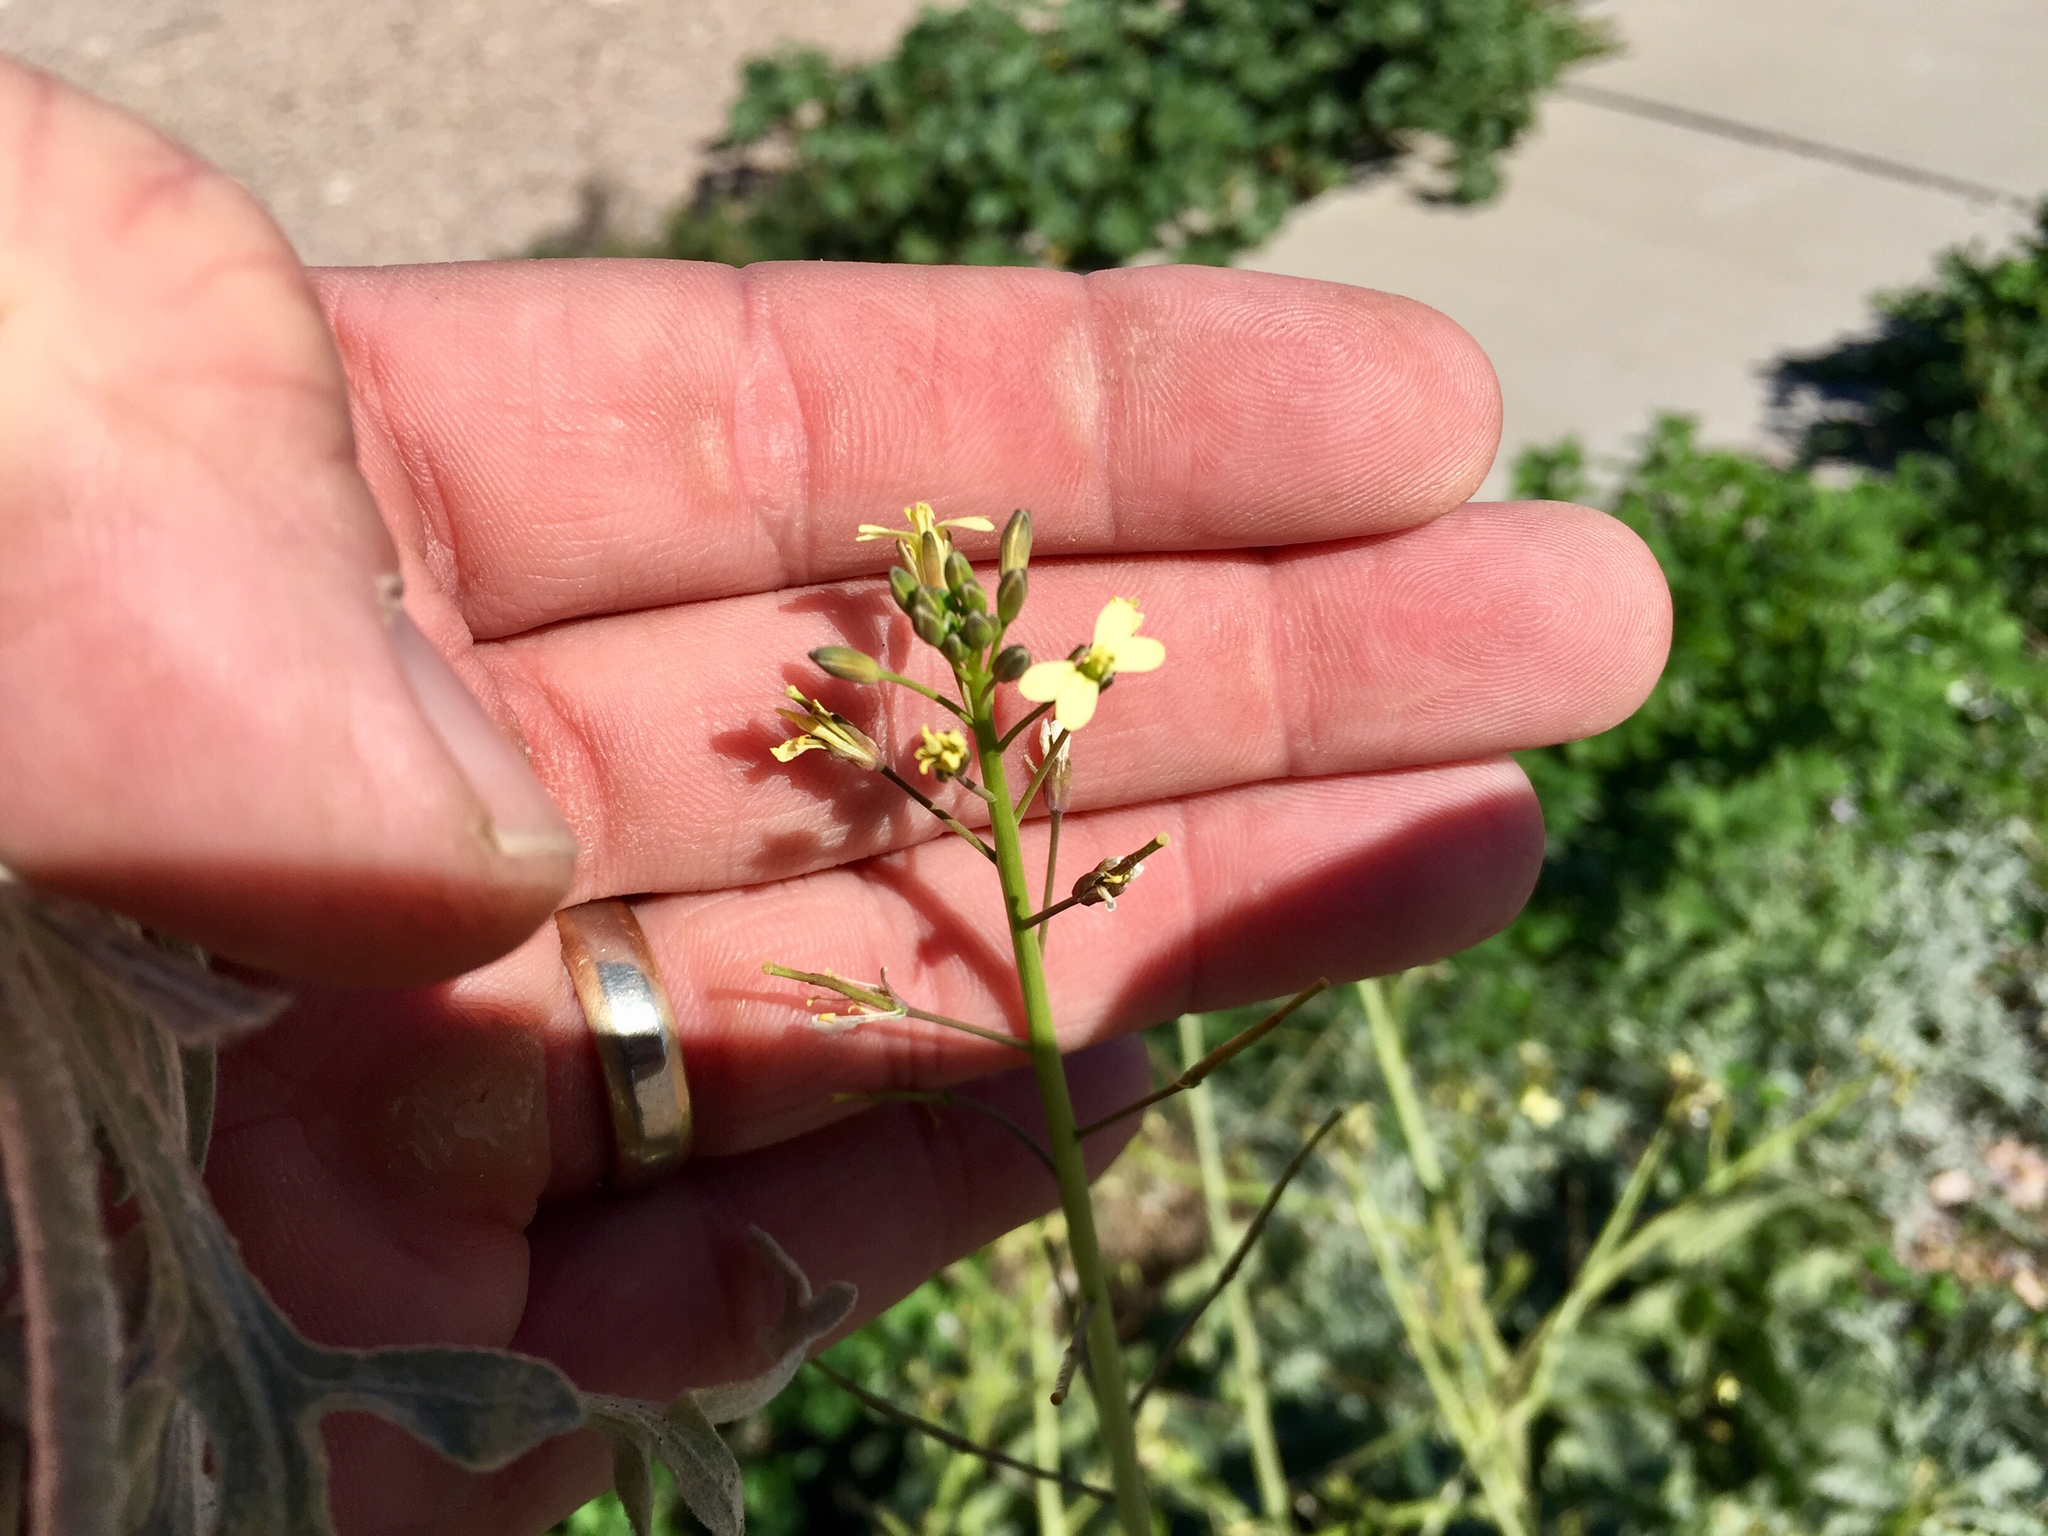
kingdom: Plantae
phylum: Tracheophyta
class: Magnoliopsida
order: Brassicales
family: Brassicaceae
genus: Brassica
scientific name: Brassica tournefortii
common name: Pale cabbage
